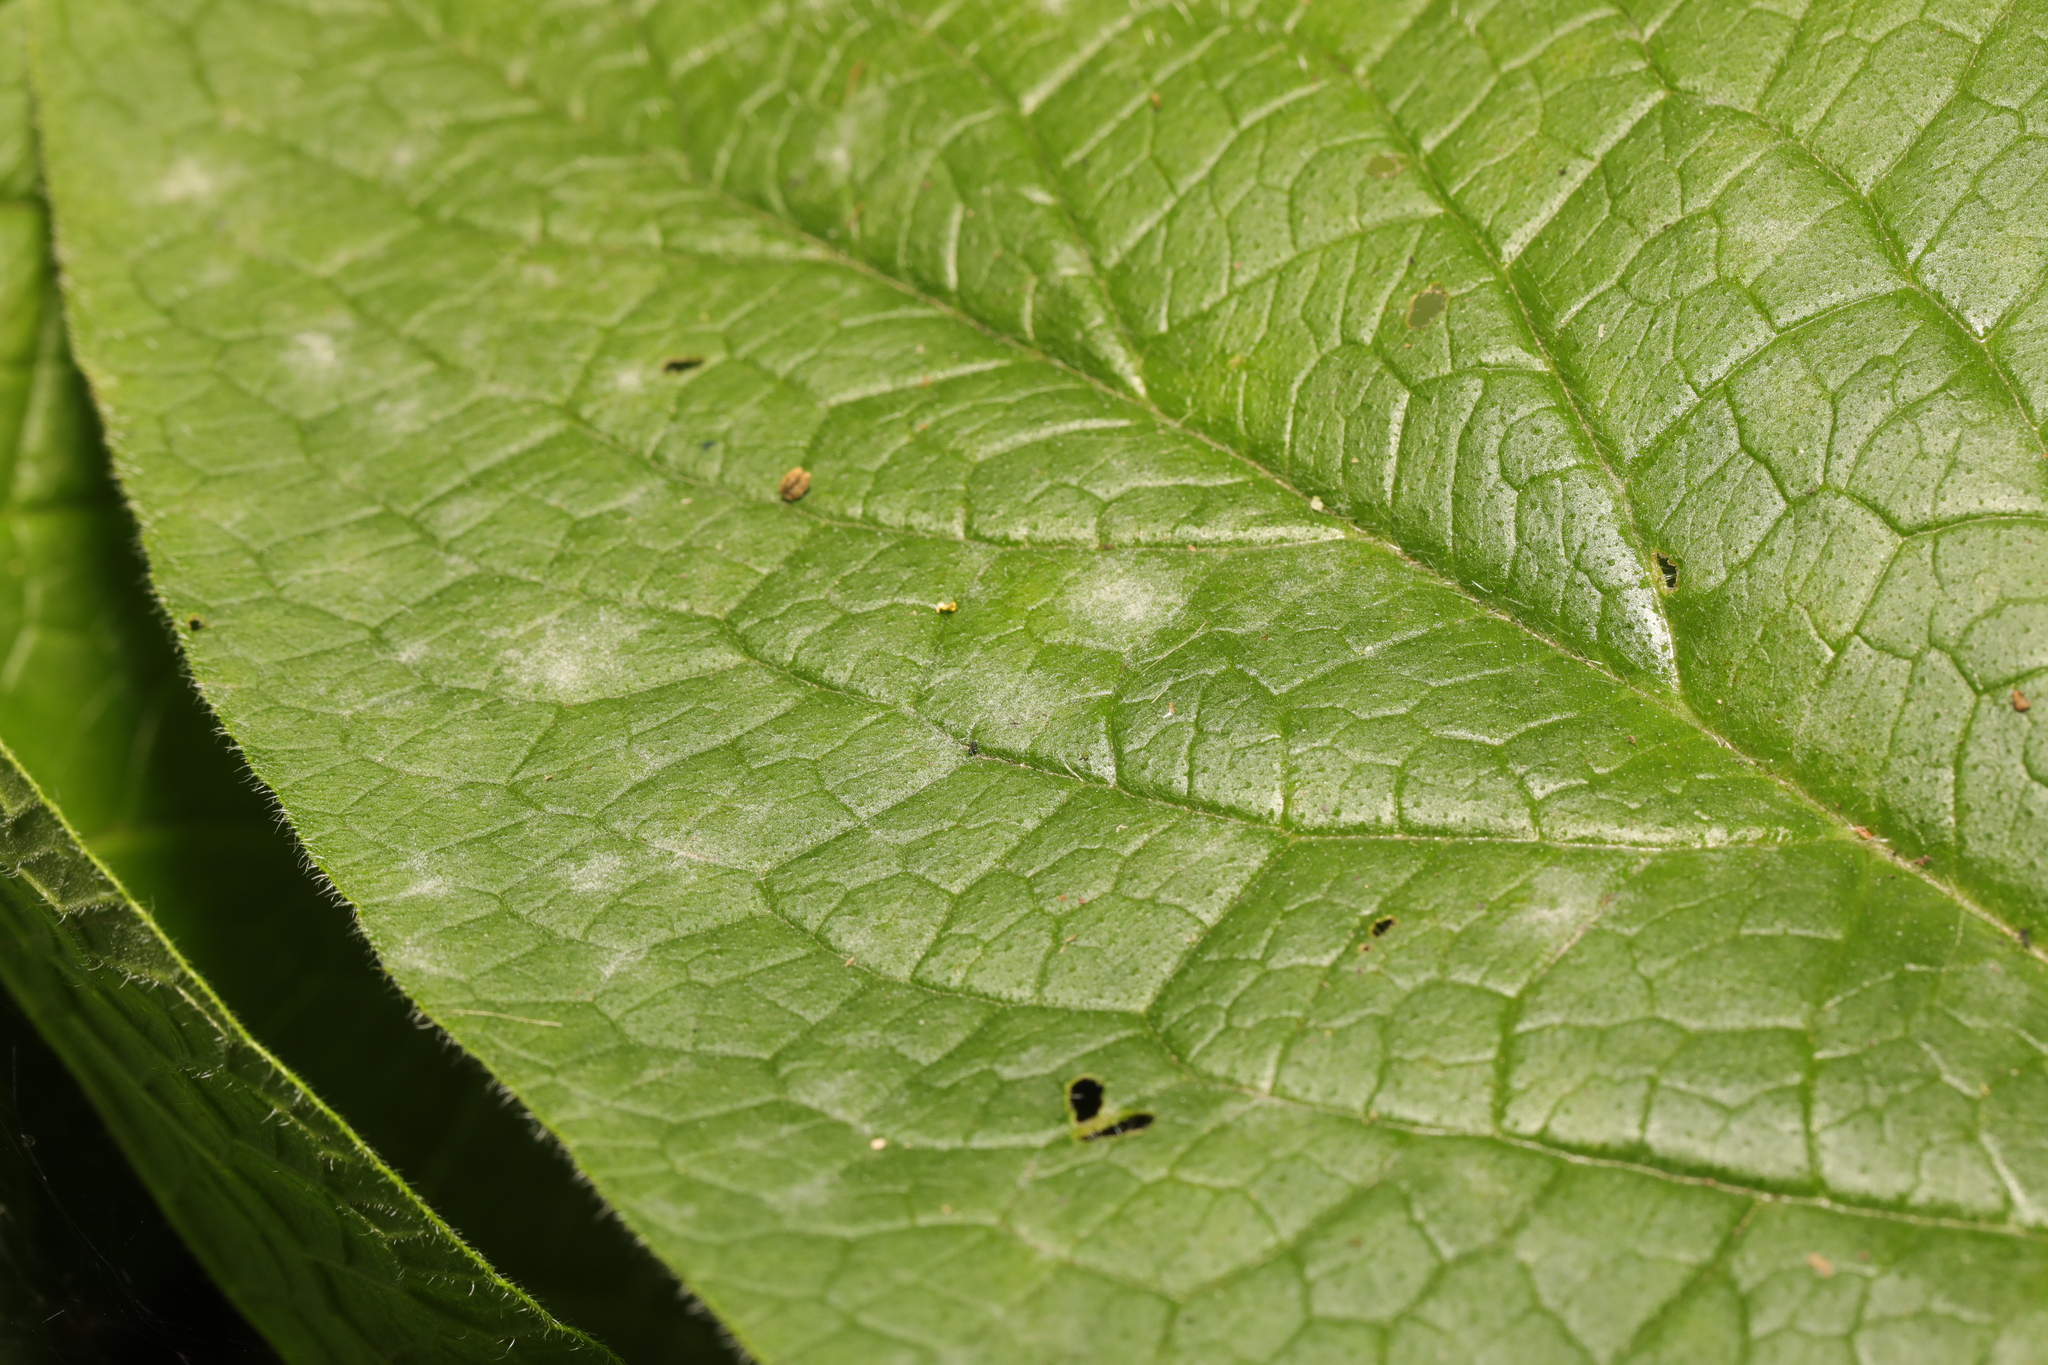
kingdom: Fungi
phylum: Ascomycota
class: Leotiomycetes
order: Helotiales
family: Erysiphaceae
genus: Golovinomyces
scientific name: Golovinomyces asperifoliorum
